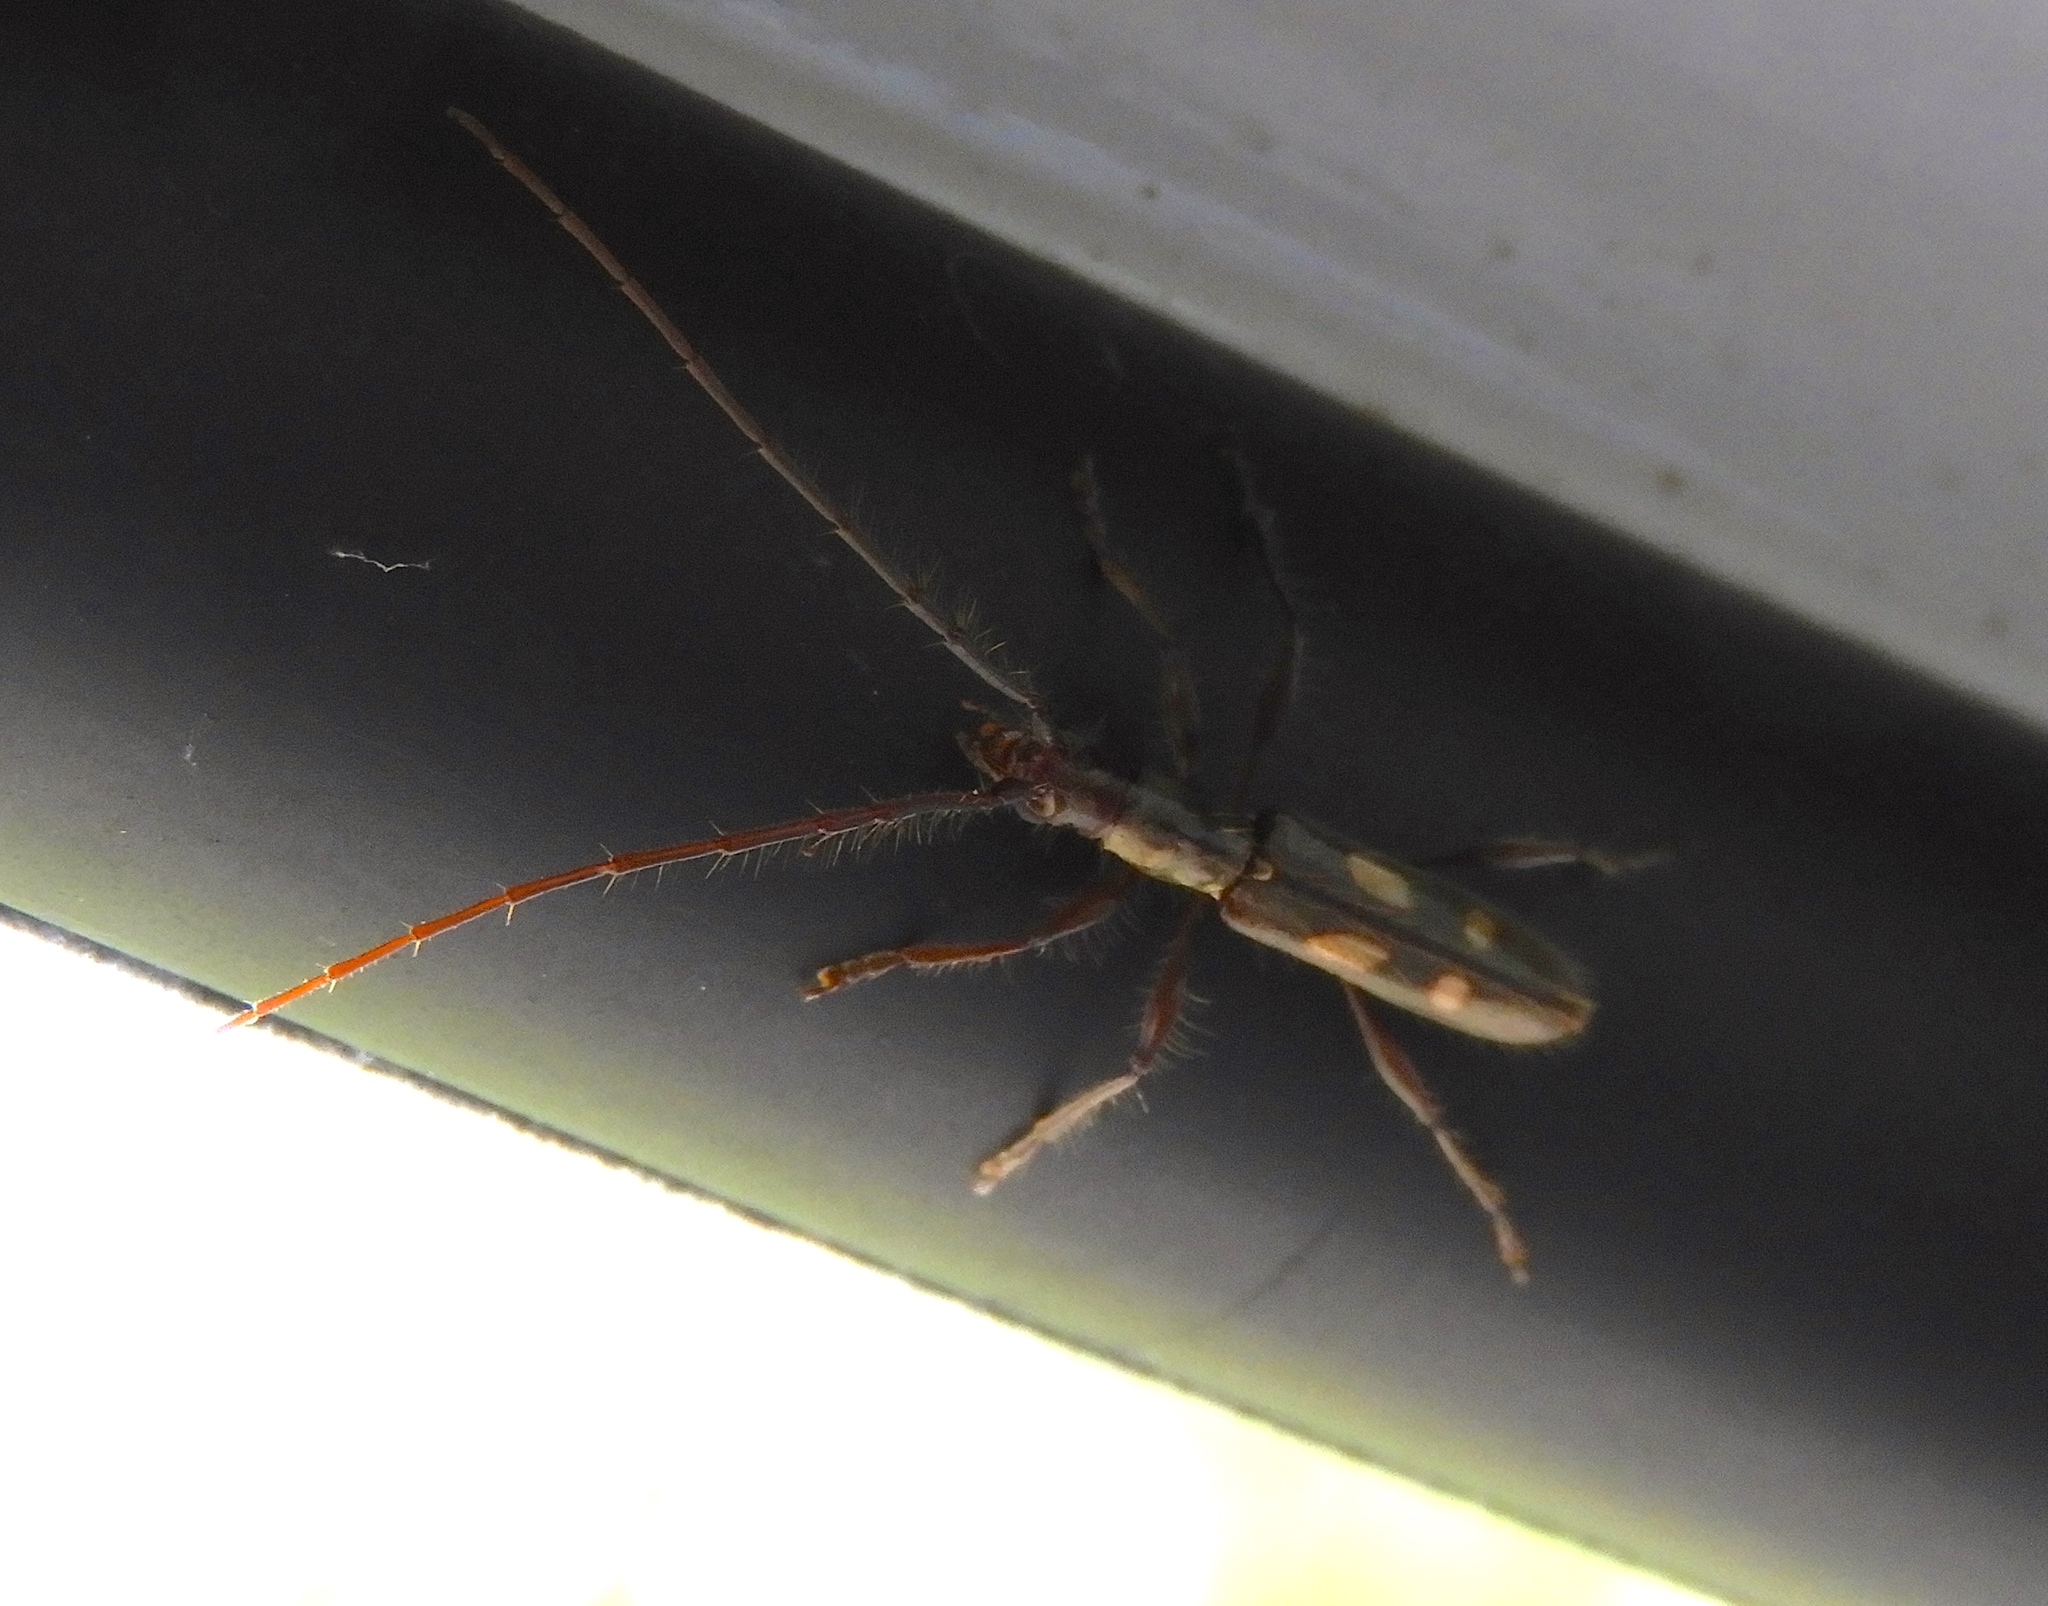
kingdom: Animalia
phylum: Arthropoda
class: Insecta
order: Coleoptera
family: Cerambycidae
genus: Neocompsa
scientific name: Neocompsa agnosta
